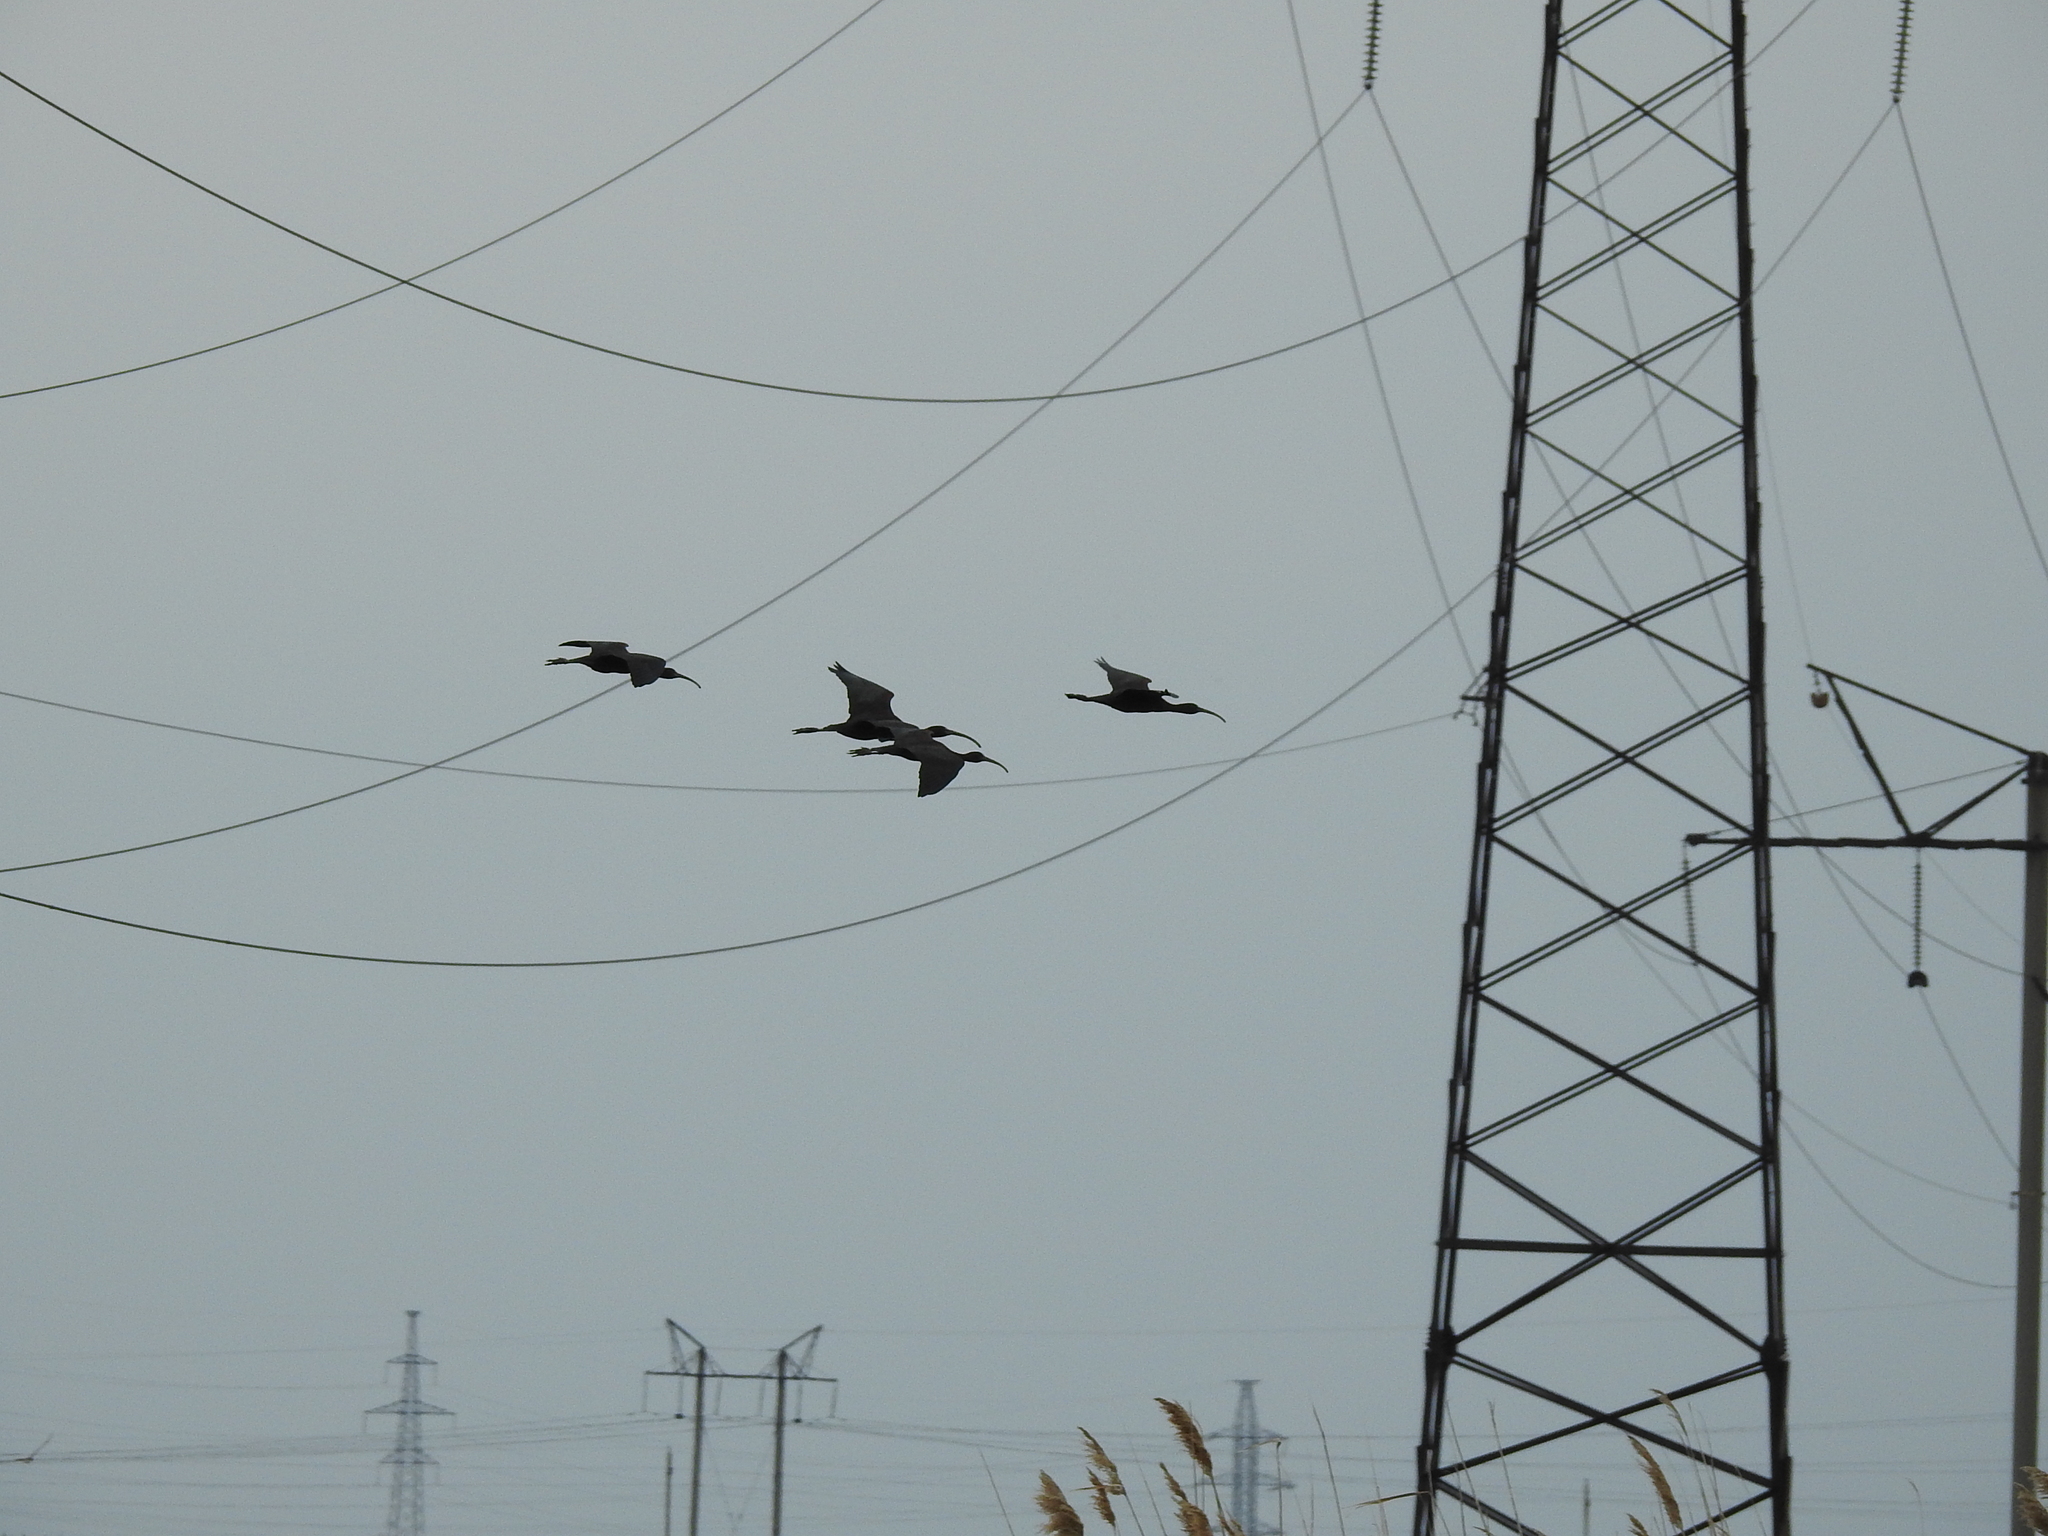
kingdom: Animalia
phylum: Chordata
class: Aves
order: Pelecaniformes
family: Threskiornithidae
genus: Plegadis
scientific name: Plegadis falcinellus
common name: Glossy ibis
